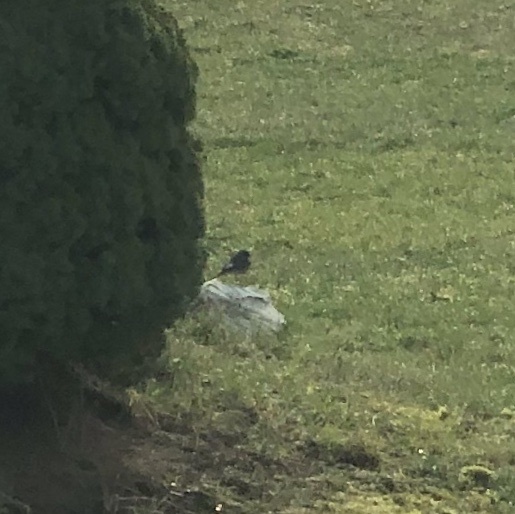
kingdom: Animalia
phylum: Chordata
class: Aves
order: Passeriformes
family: Muscicapidae
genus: Phoenicurus
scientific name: Phoenicurus ochruros
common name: Black redstart
